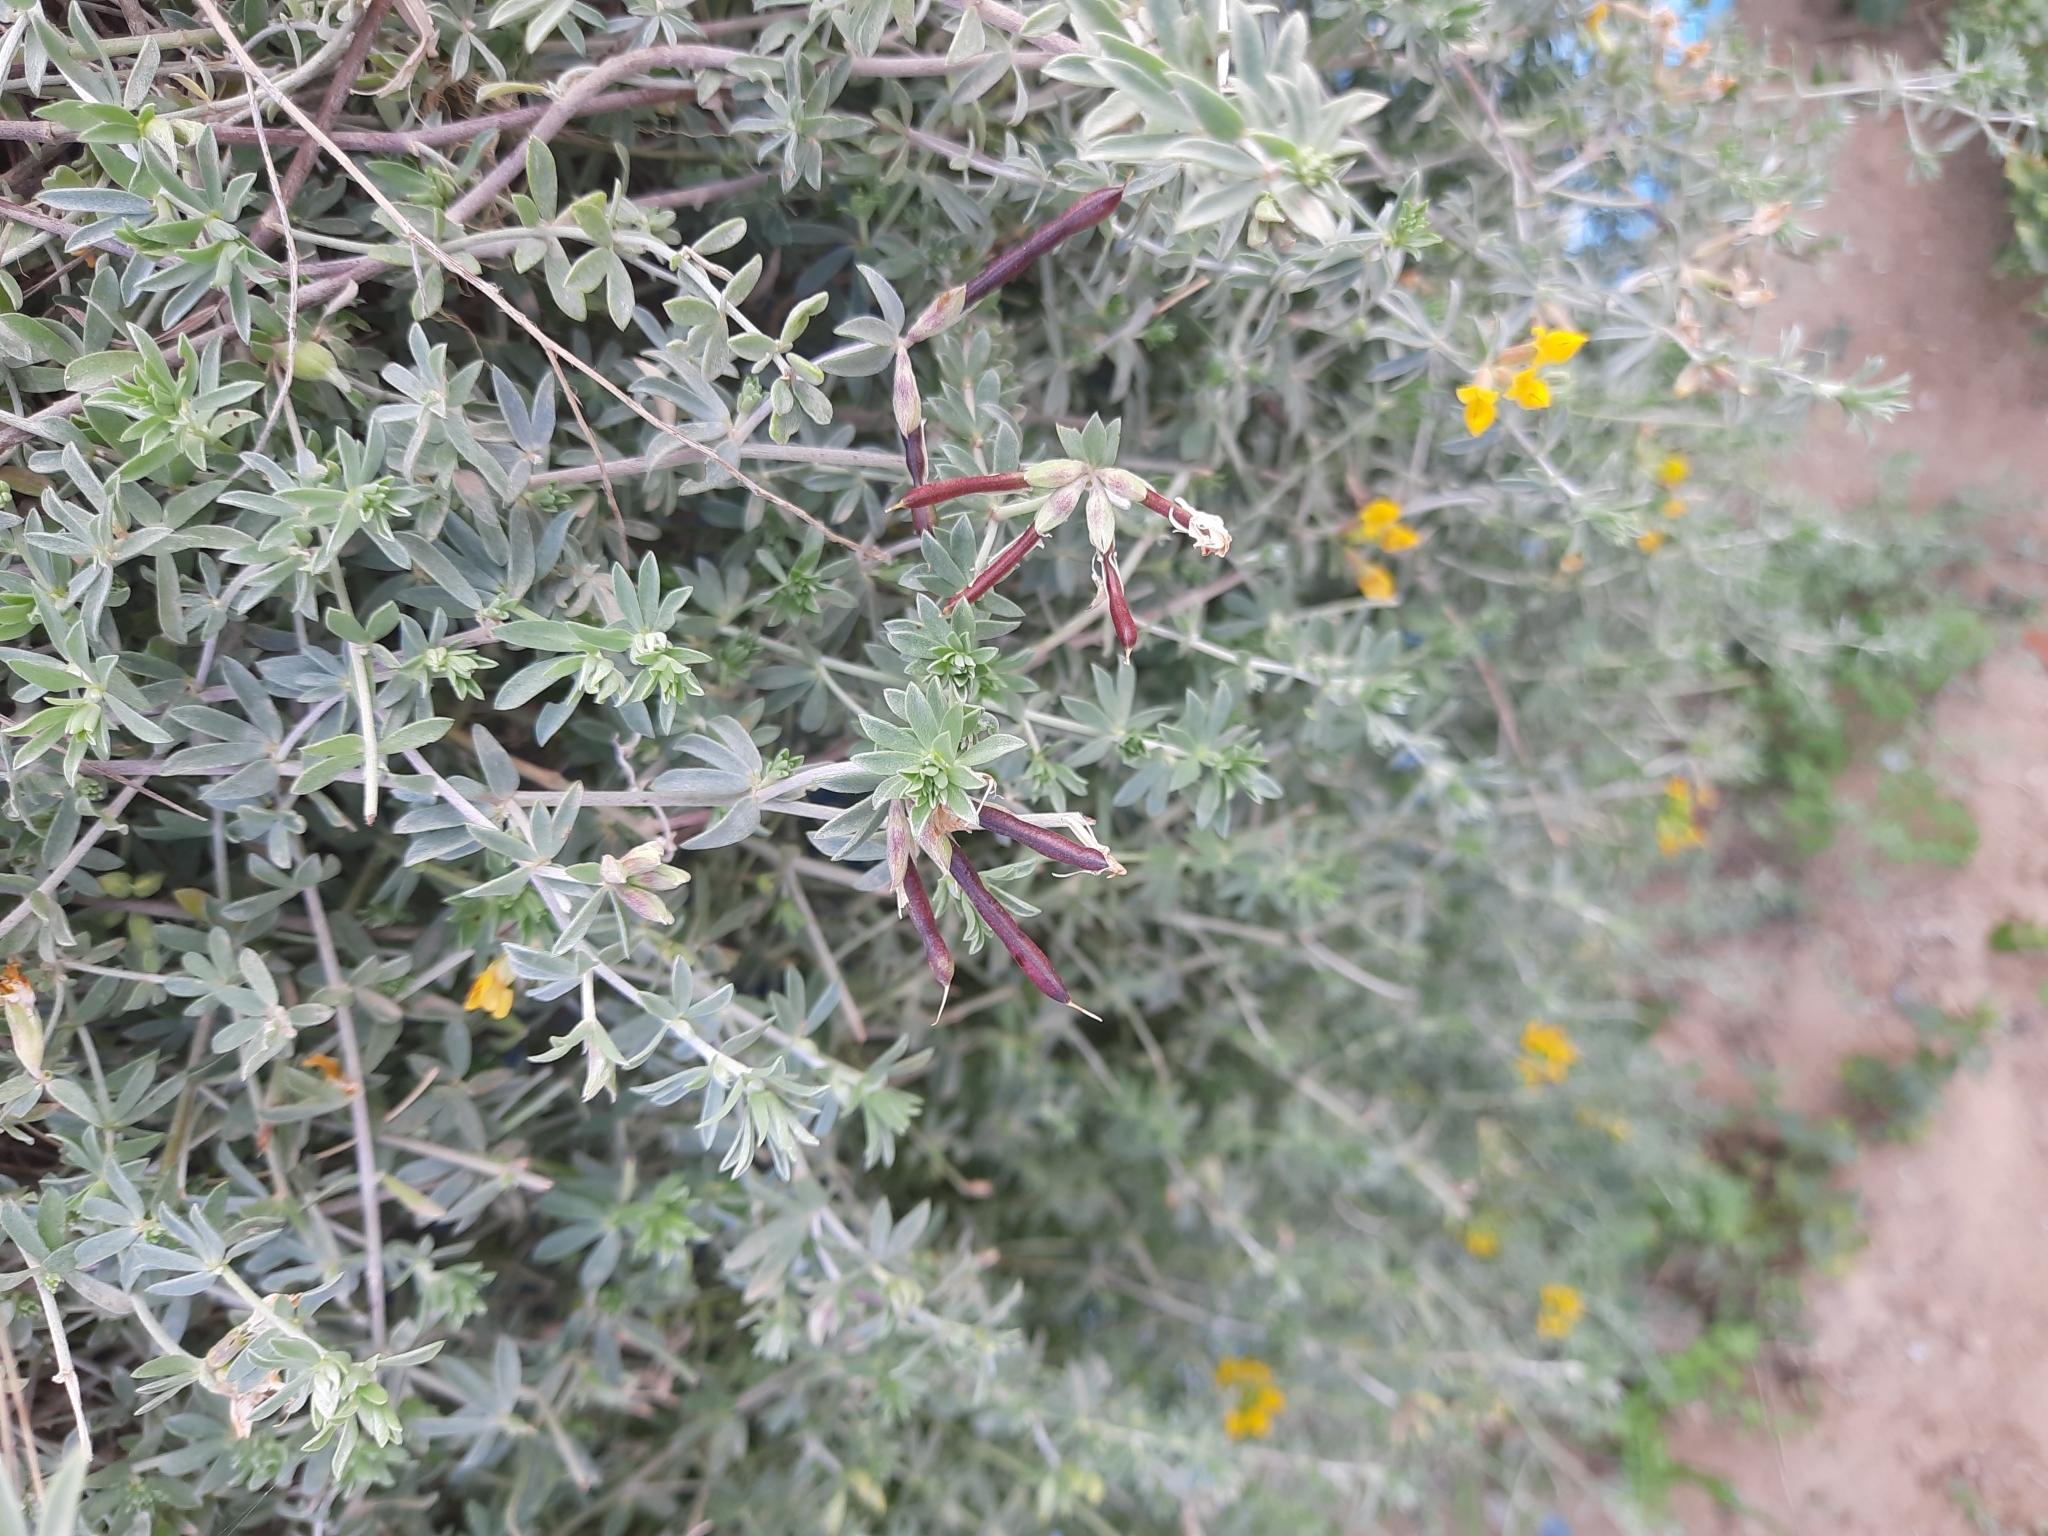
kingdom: Plantae
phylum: Tracheophyta
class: Magnoliopsida
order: Fabales
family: Fabaceae
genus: Lotus
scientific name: Lotus creticus
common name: Cretan bird's-foot trefoil
